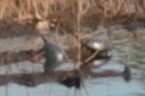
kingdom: Animalia
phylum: Chordata
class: Testudines
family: Emydidae
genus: Chrysemys
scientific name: Chrysemys picta
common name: Painted turtle
